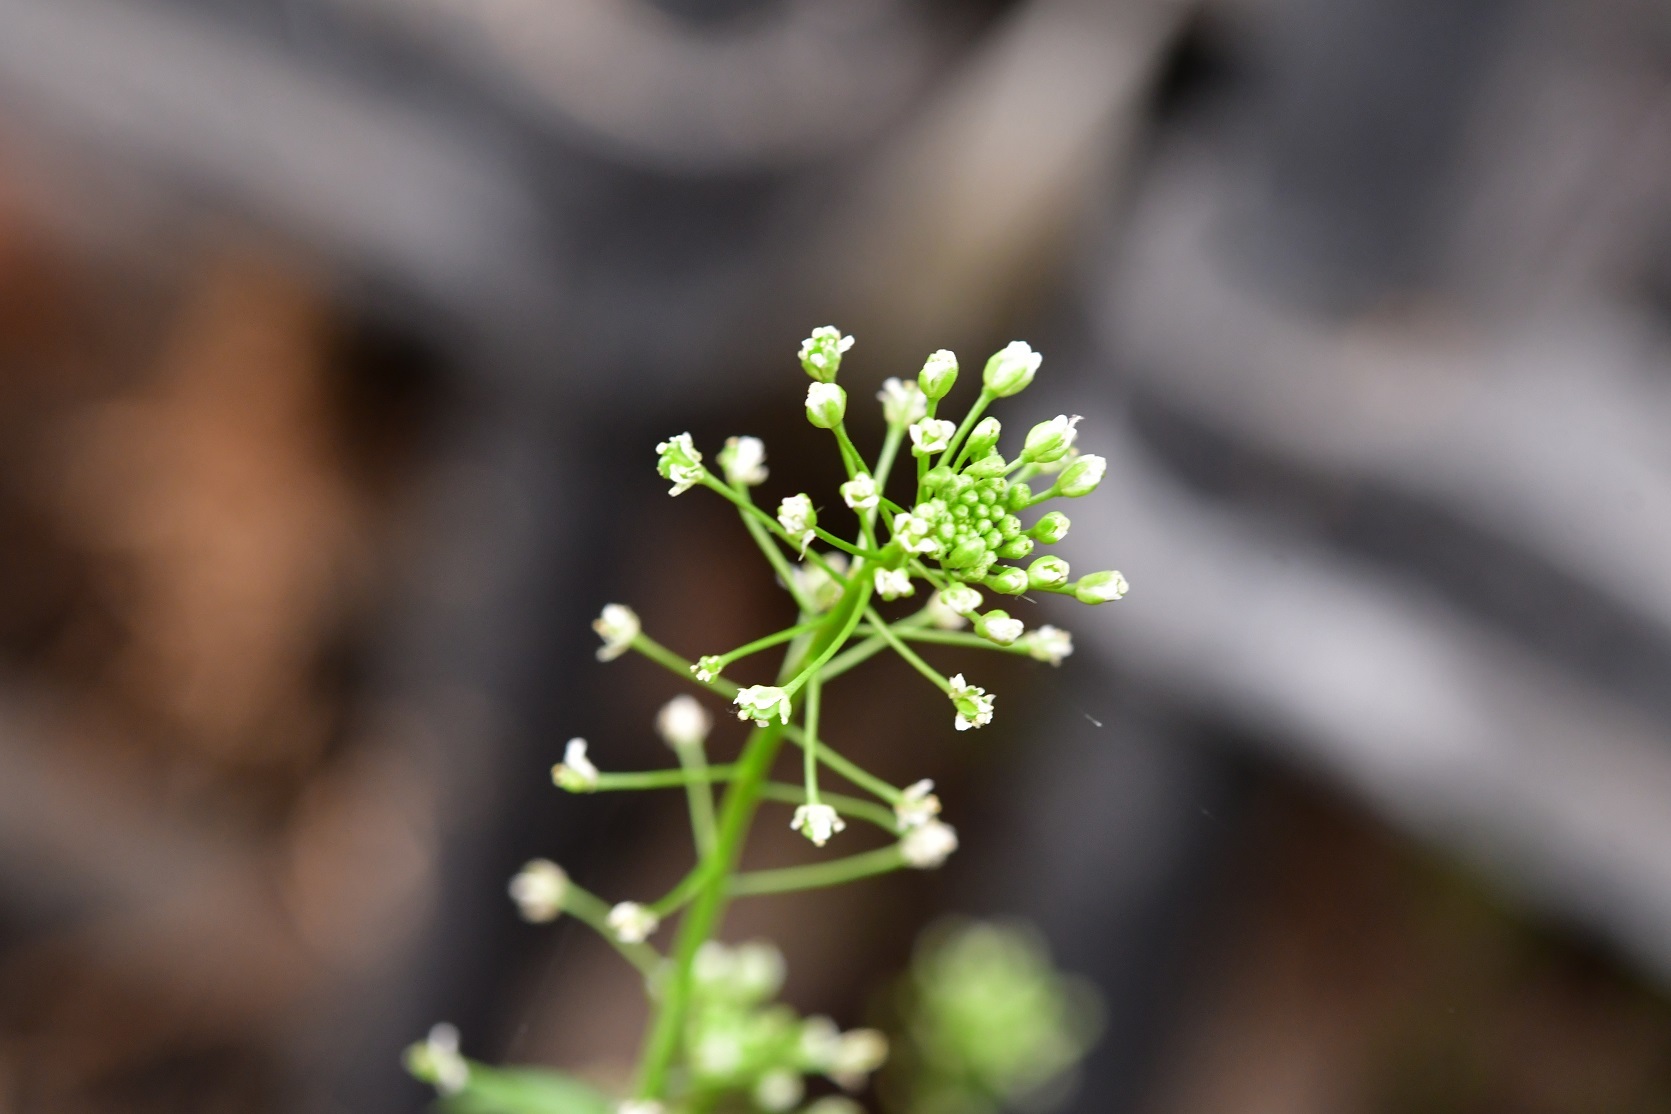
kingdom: Plantae
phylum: Tracheophyta
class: Magnoliopsida
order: Brassicales
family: Brassicaceae
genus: Capsella
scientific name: Capsella bursa-pastoris
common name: Shepherd's purse
